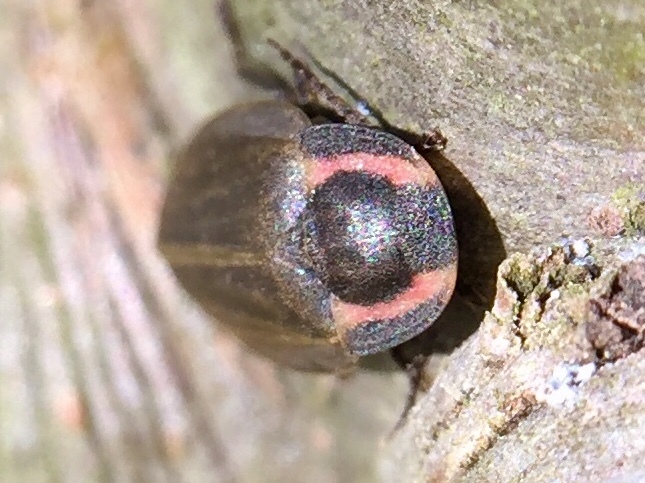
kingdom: Animalia
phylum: Arthropoda
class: Insecta
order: Coleoptera
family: Lampyridae
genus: Photinus
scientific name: Photinus corrusca
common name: Winter firefly
